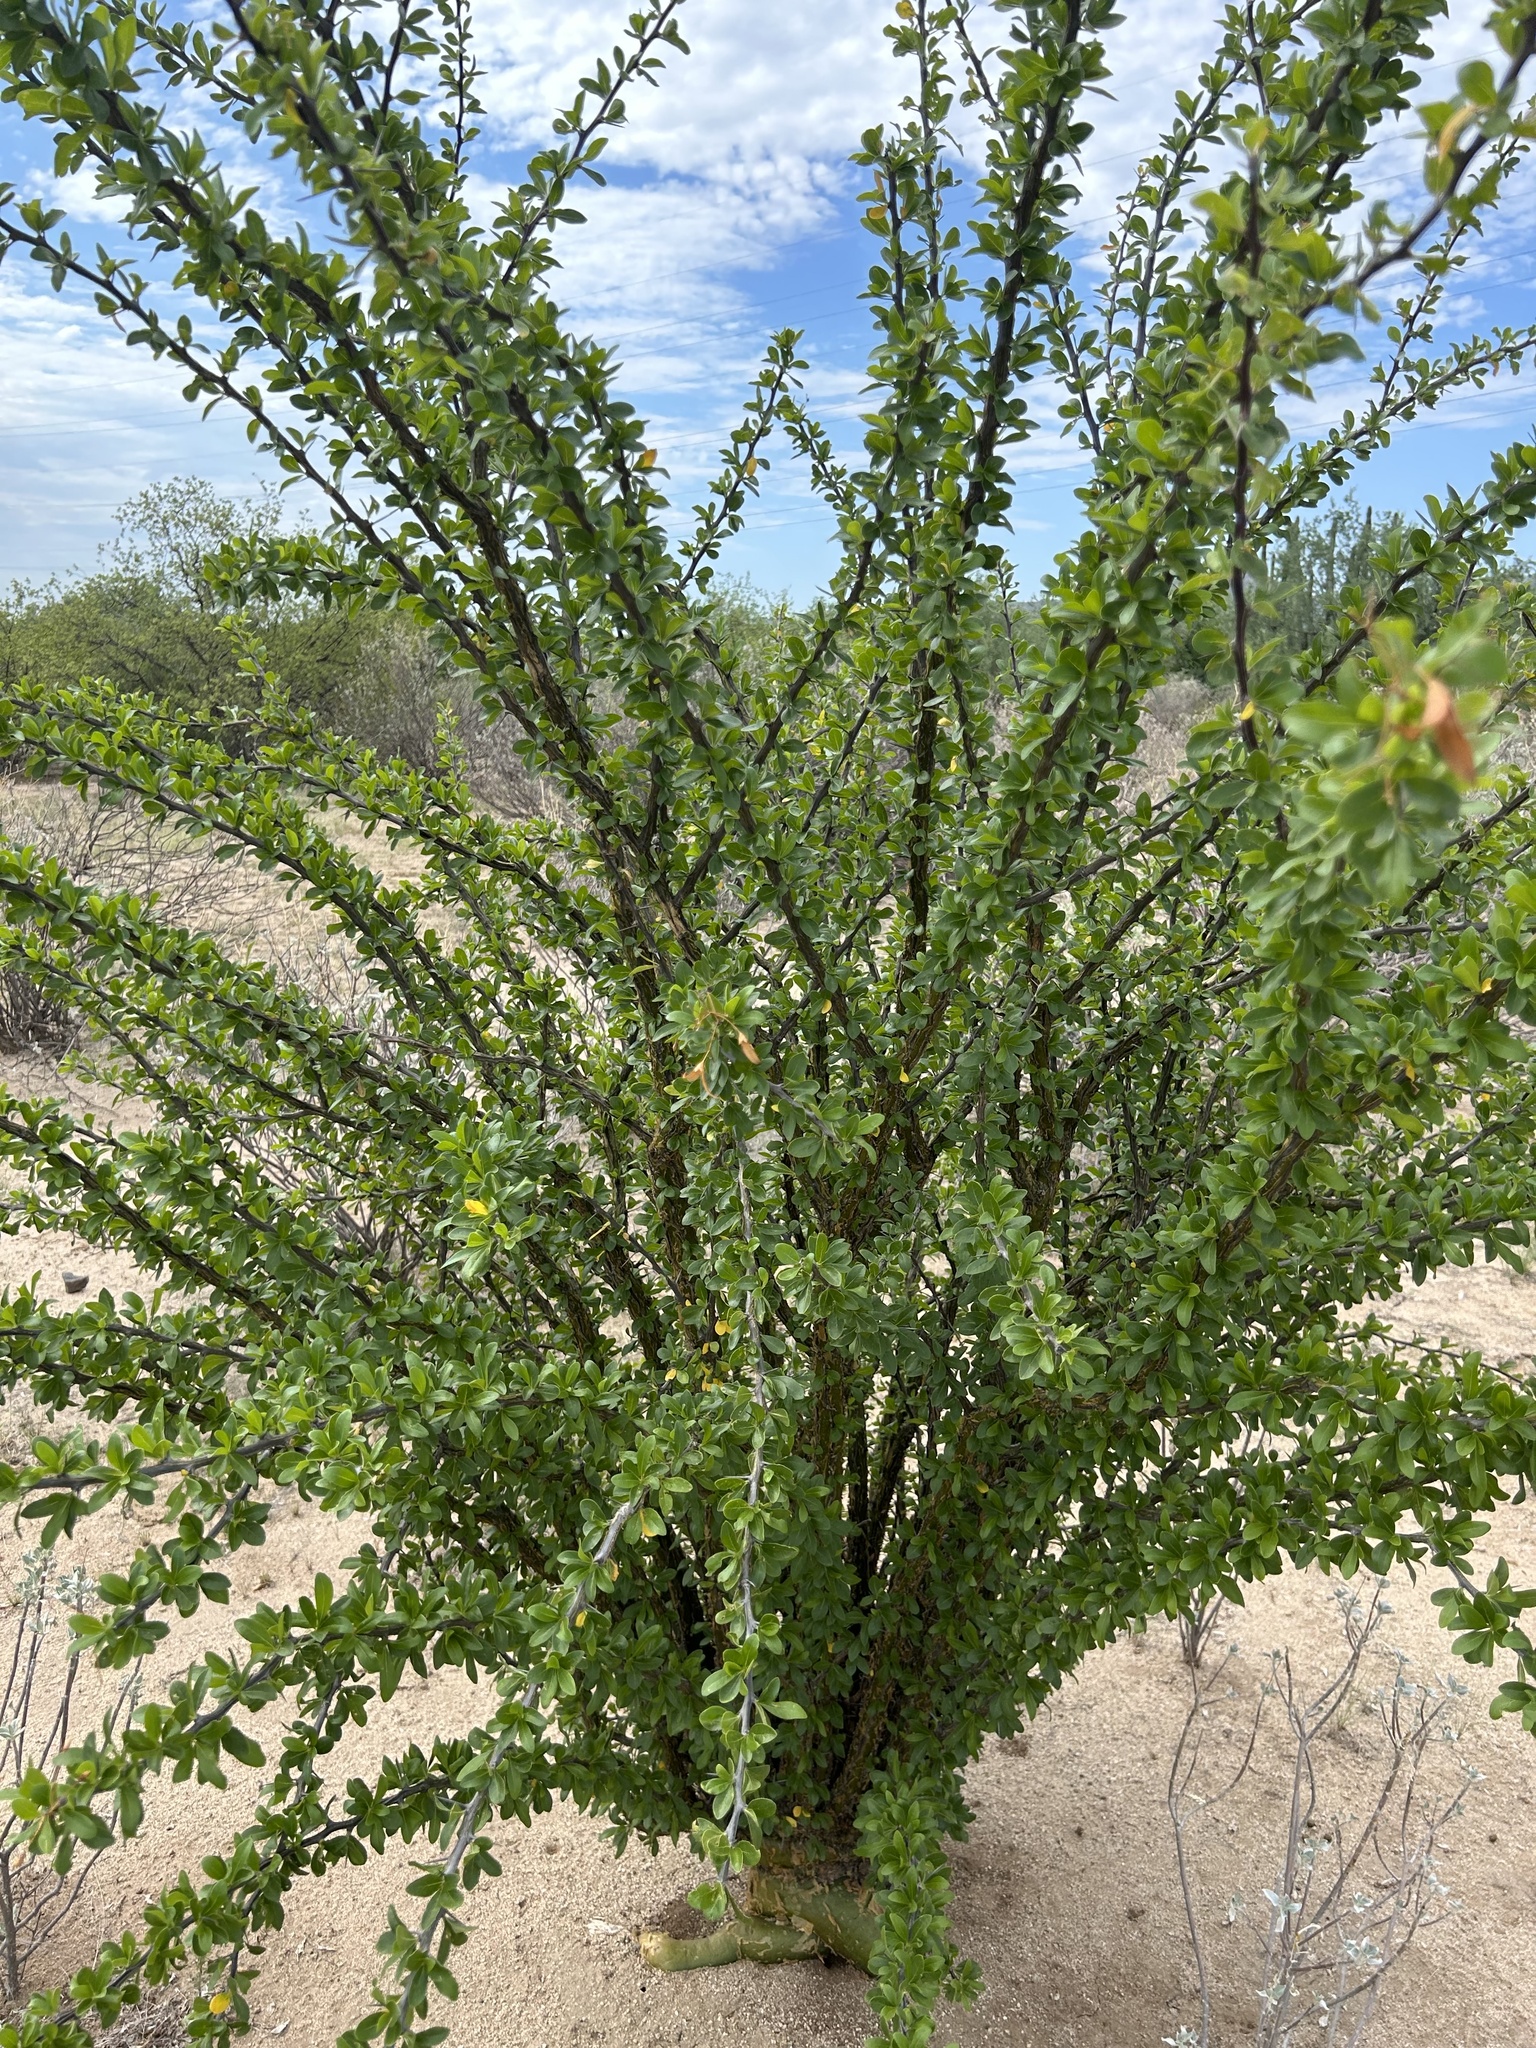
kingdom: Plantae
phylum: Tracheophyta
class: Magnoliopsida
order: Ericales
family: Fouquieriaceae
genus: Fouquieria
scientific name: Fouquieria macdougalii
